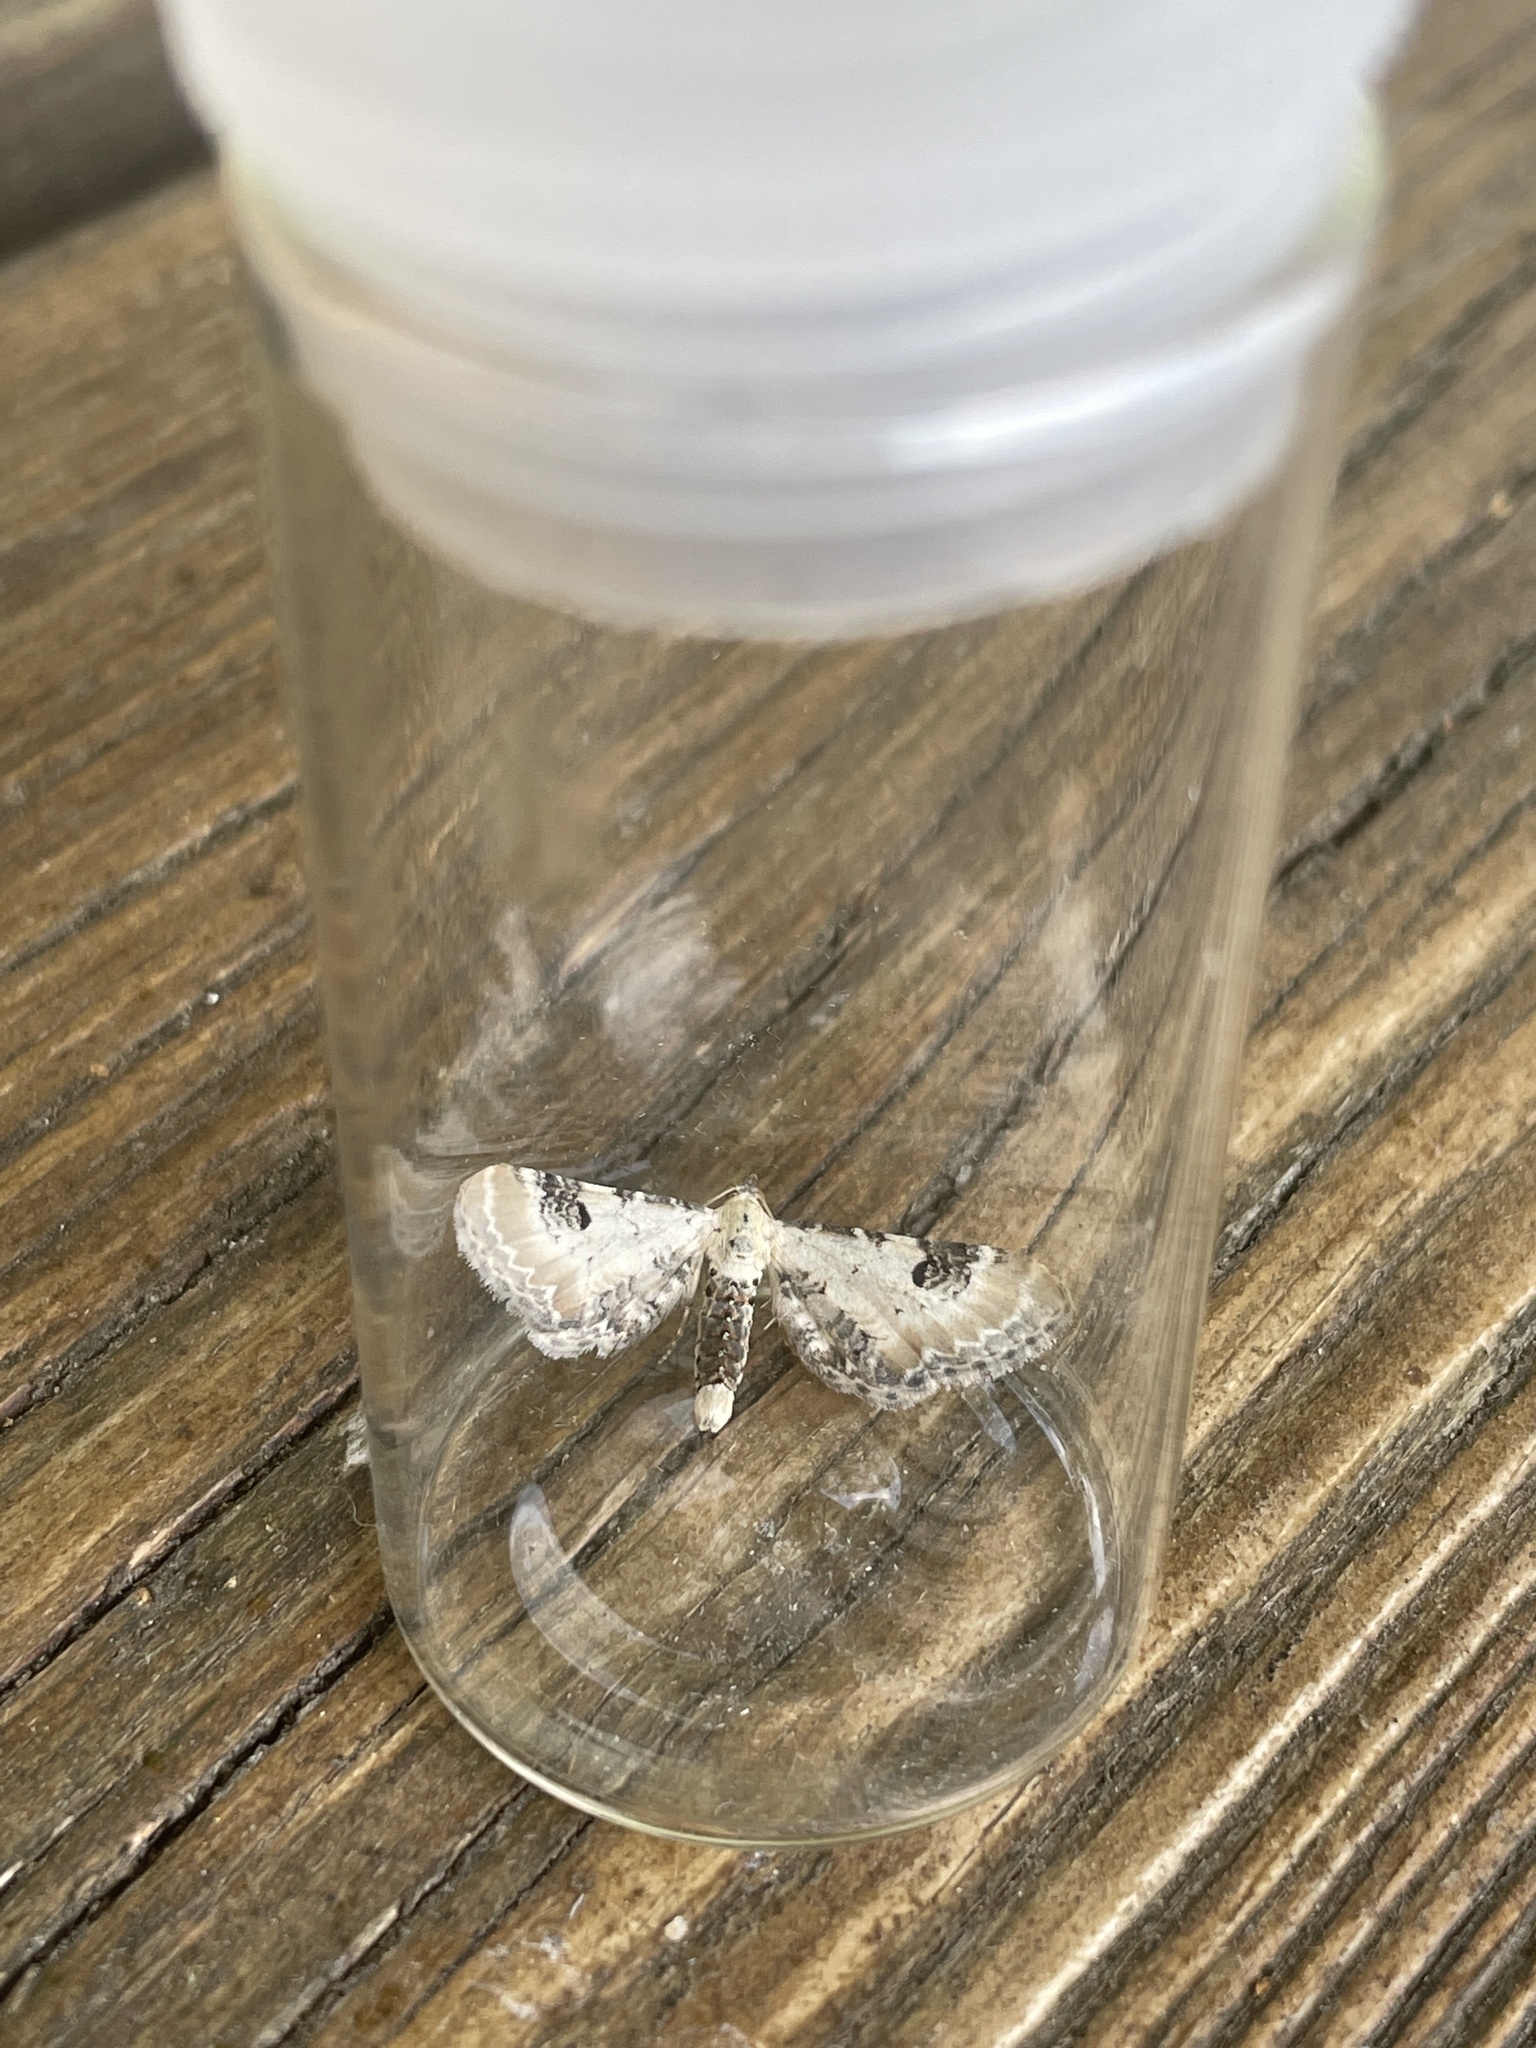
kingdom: Animalia
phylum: Arthropoda
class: Insecta
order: Lepidoptera
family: Geometridae
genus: Eupithecia
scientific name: Eupithecia centaureata
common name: Lime-speck pug
